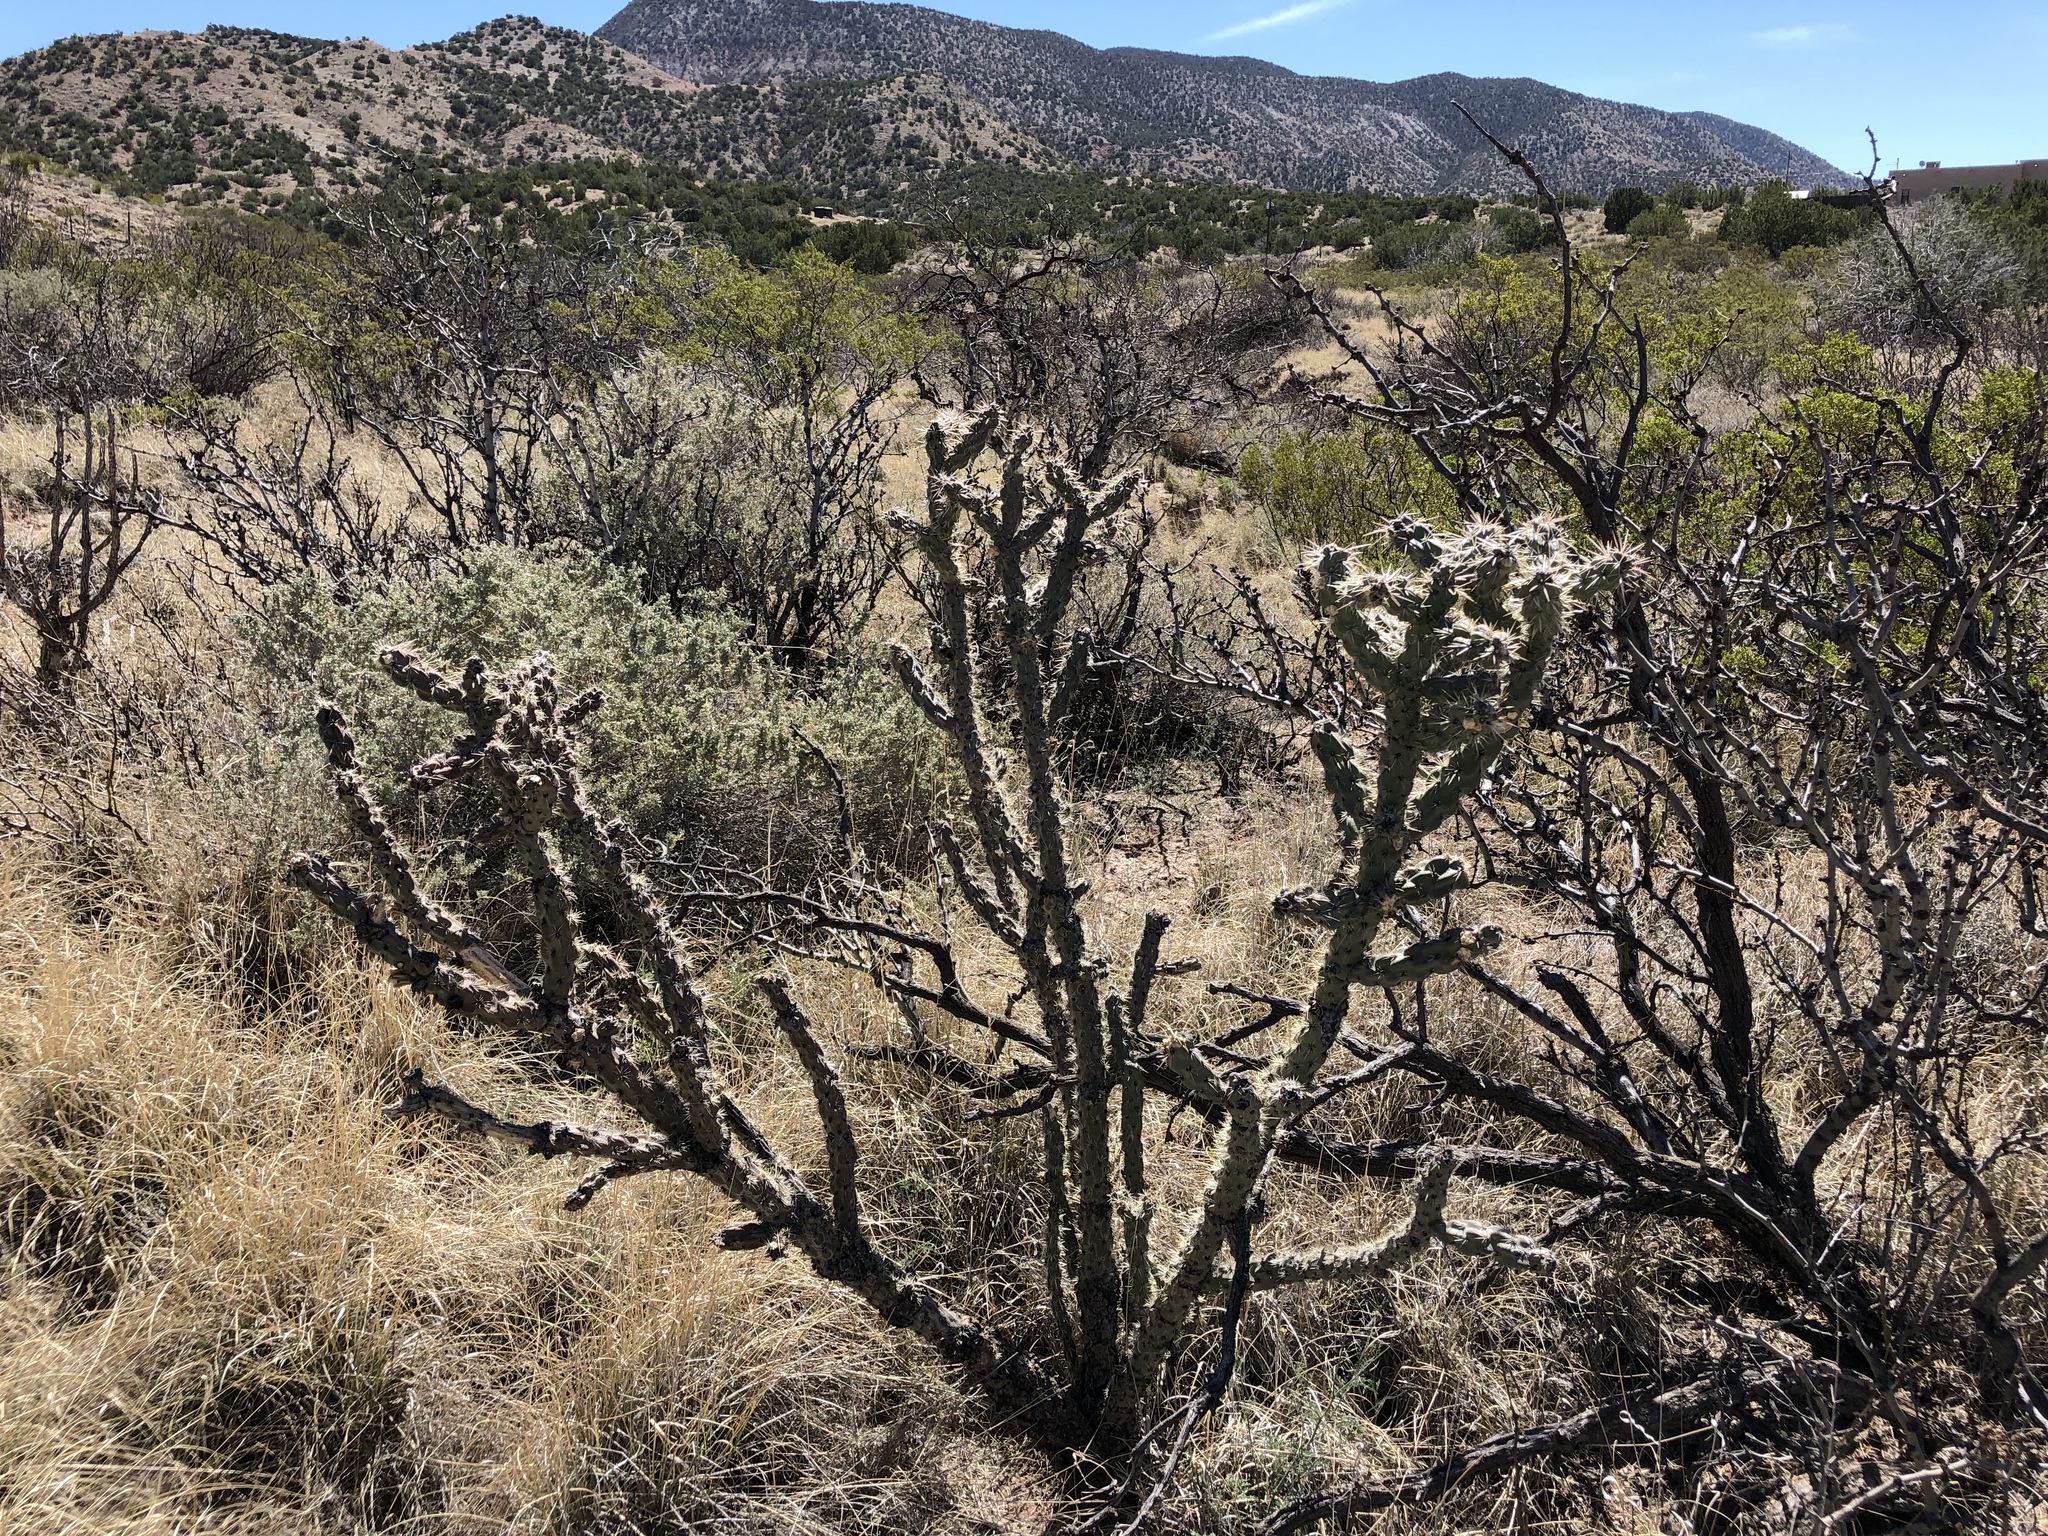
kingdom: Plantae
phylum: Tracheophyta
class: Magnoliopsida
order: Caryophyllales
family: Cactaceae
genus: Cylindropuntia
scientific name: Cylindropuntia imbricata
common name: Candelabrum cactus
